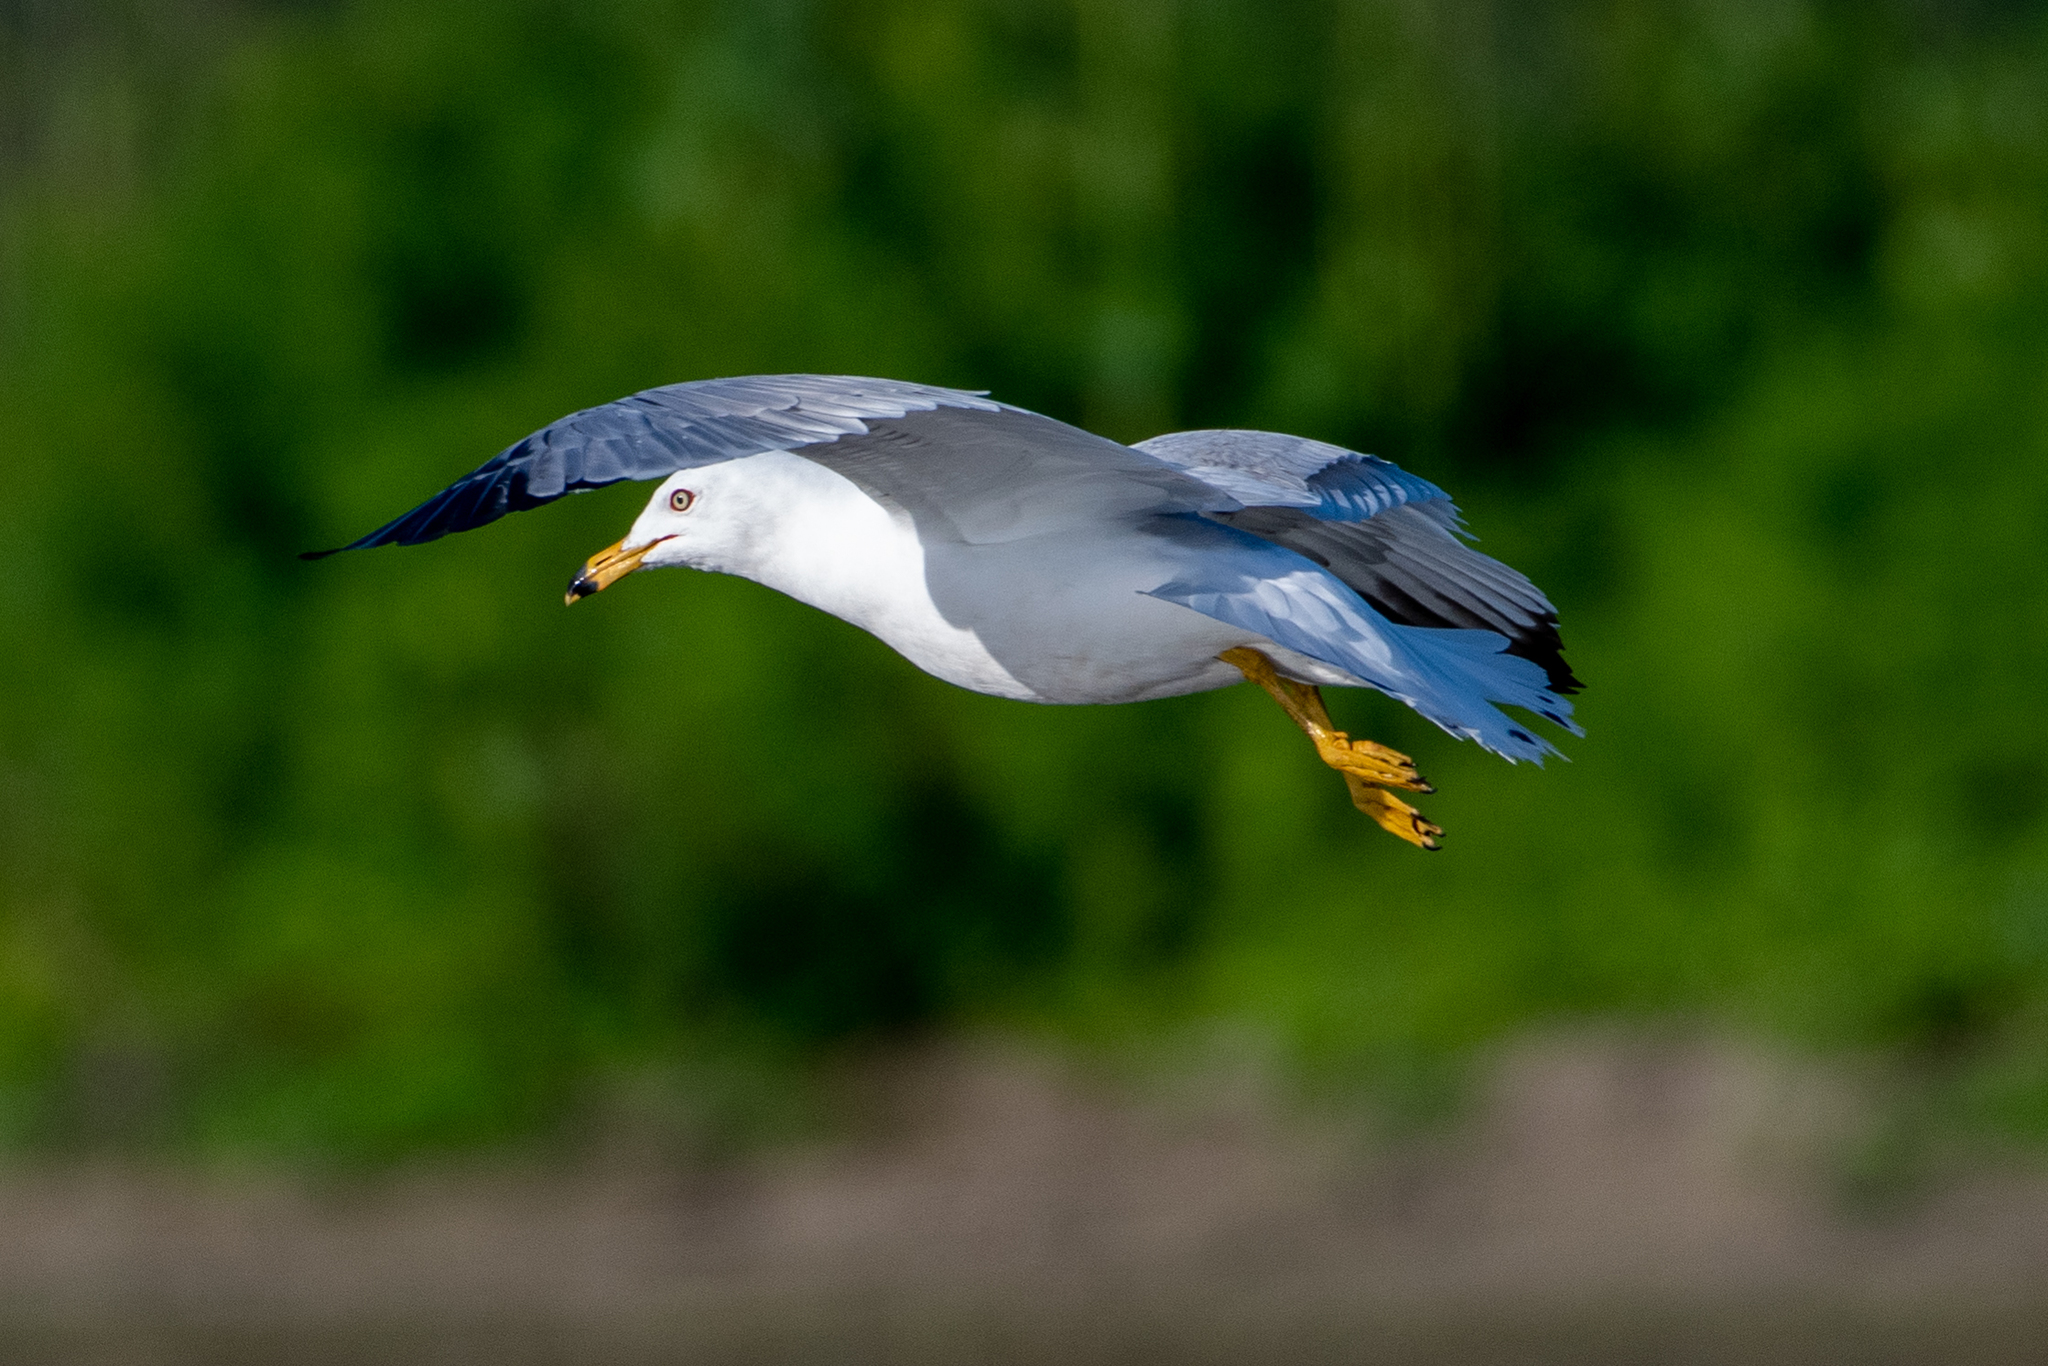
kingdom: Animalia
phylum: Chordata
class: Aves
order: Charadriiformes
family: Laridae
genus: Larus
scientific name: Larus delawarensis
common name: Ring-billed gull
